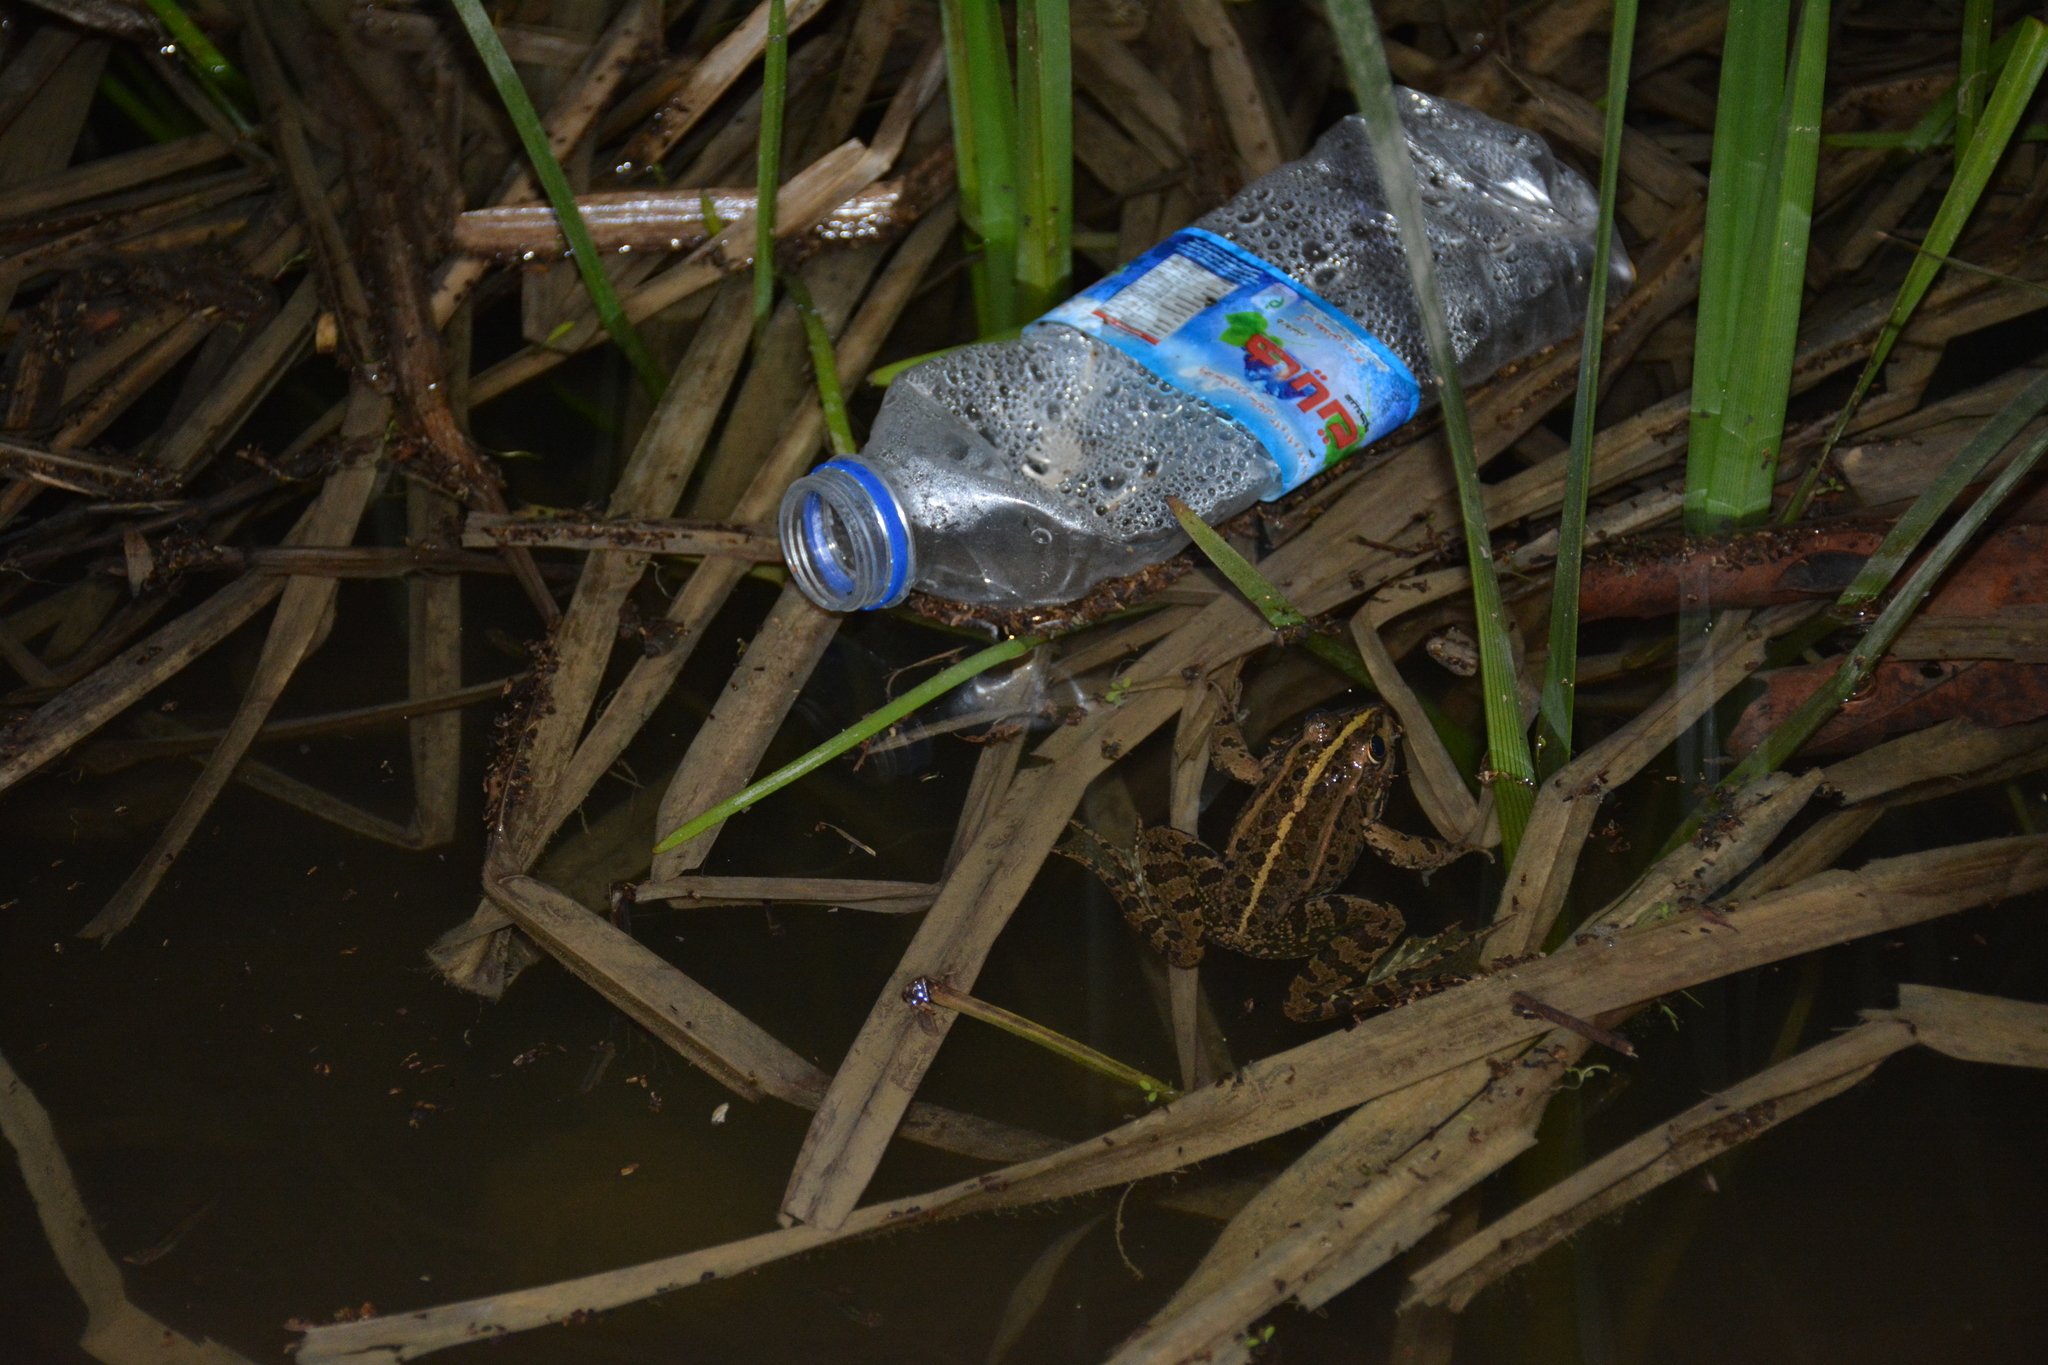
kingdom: Animalia
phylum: Chordata
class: Amphibia
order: Anura
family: Ranidae
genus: Pelophylax
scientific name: Pelophylax ridibundus
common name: Marsh frog
